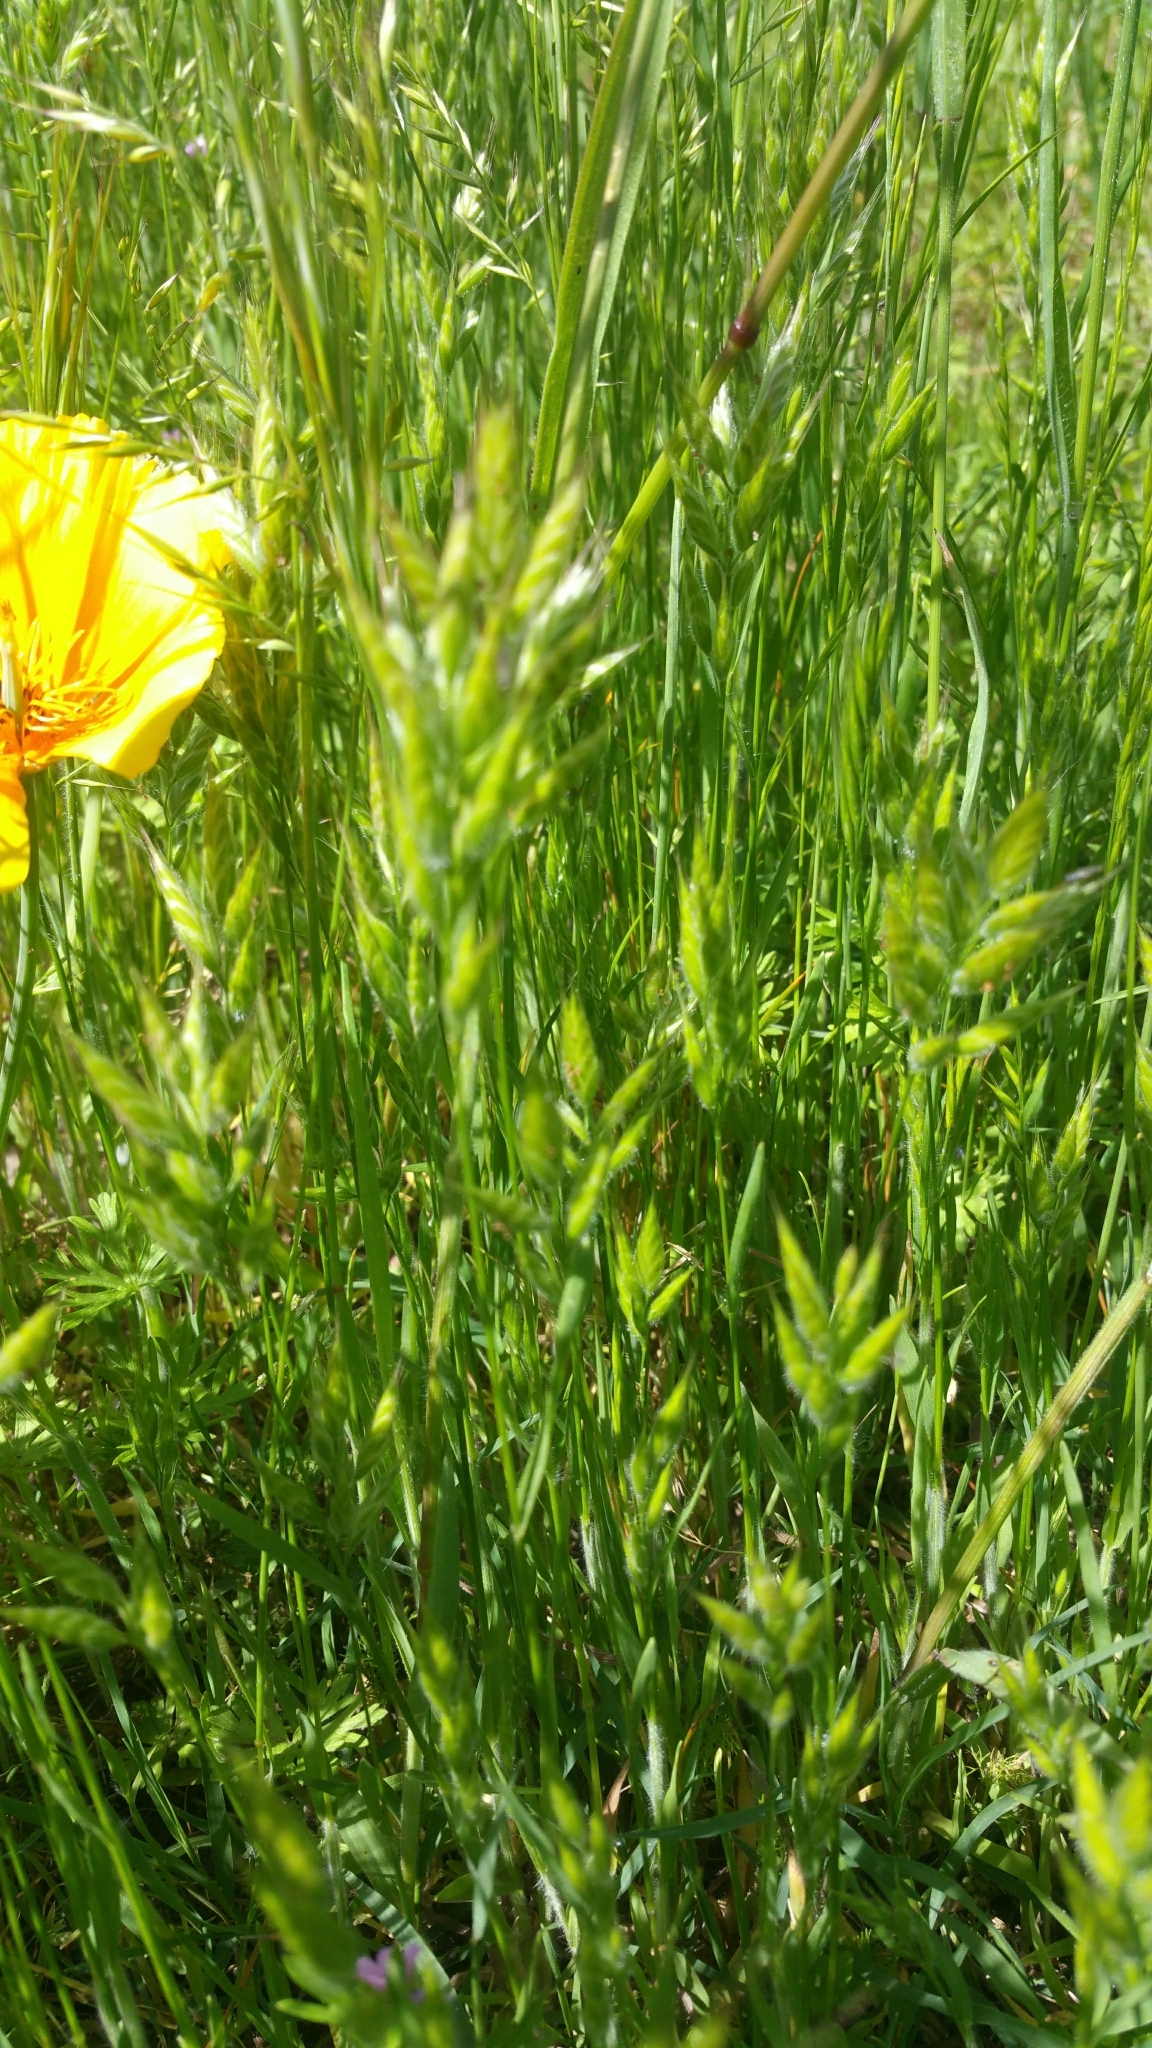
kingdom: Plantae
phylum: Tracheophyta
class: Liliopsida
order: Poales
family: Poaceae
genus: Bromus
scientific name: Bromus hordeaceus
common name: Soft brome
